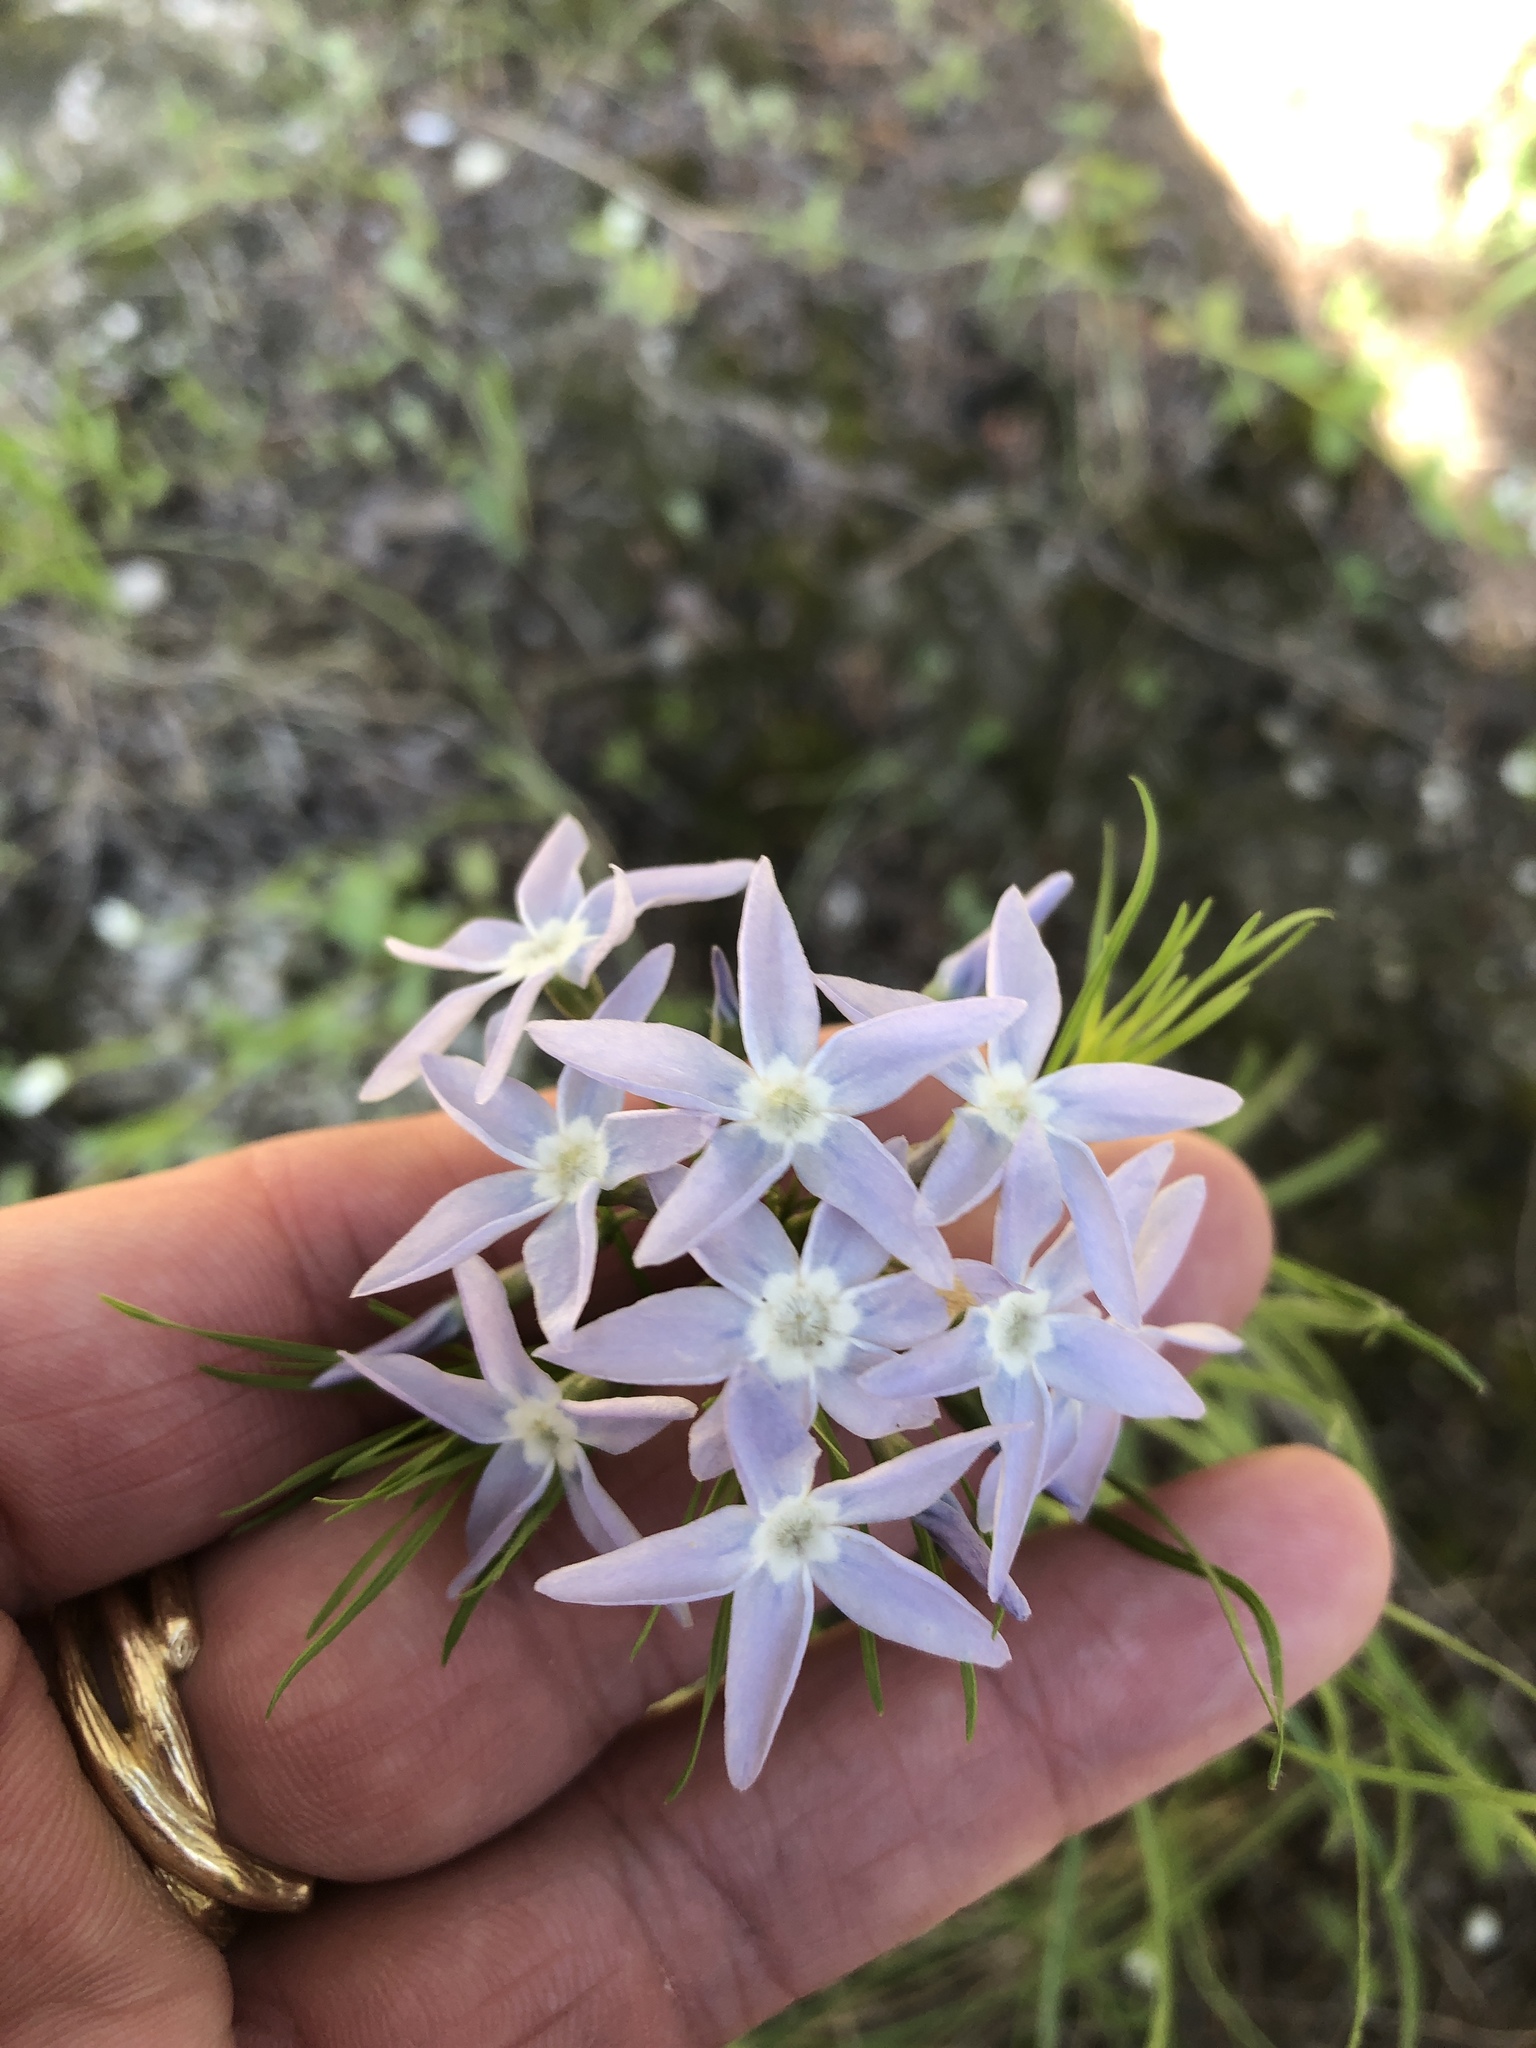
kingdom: Plantae
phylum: Tracheophyta
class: Magnoliopsida
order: Gentianales
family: Apocynaceae
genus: Amsonia
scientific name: Amsonia ciliata
